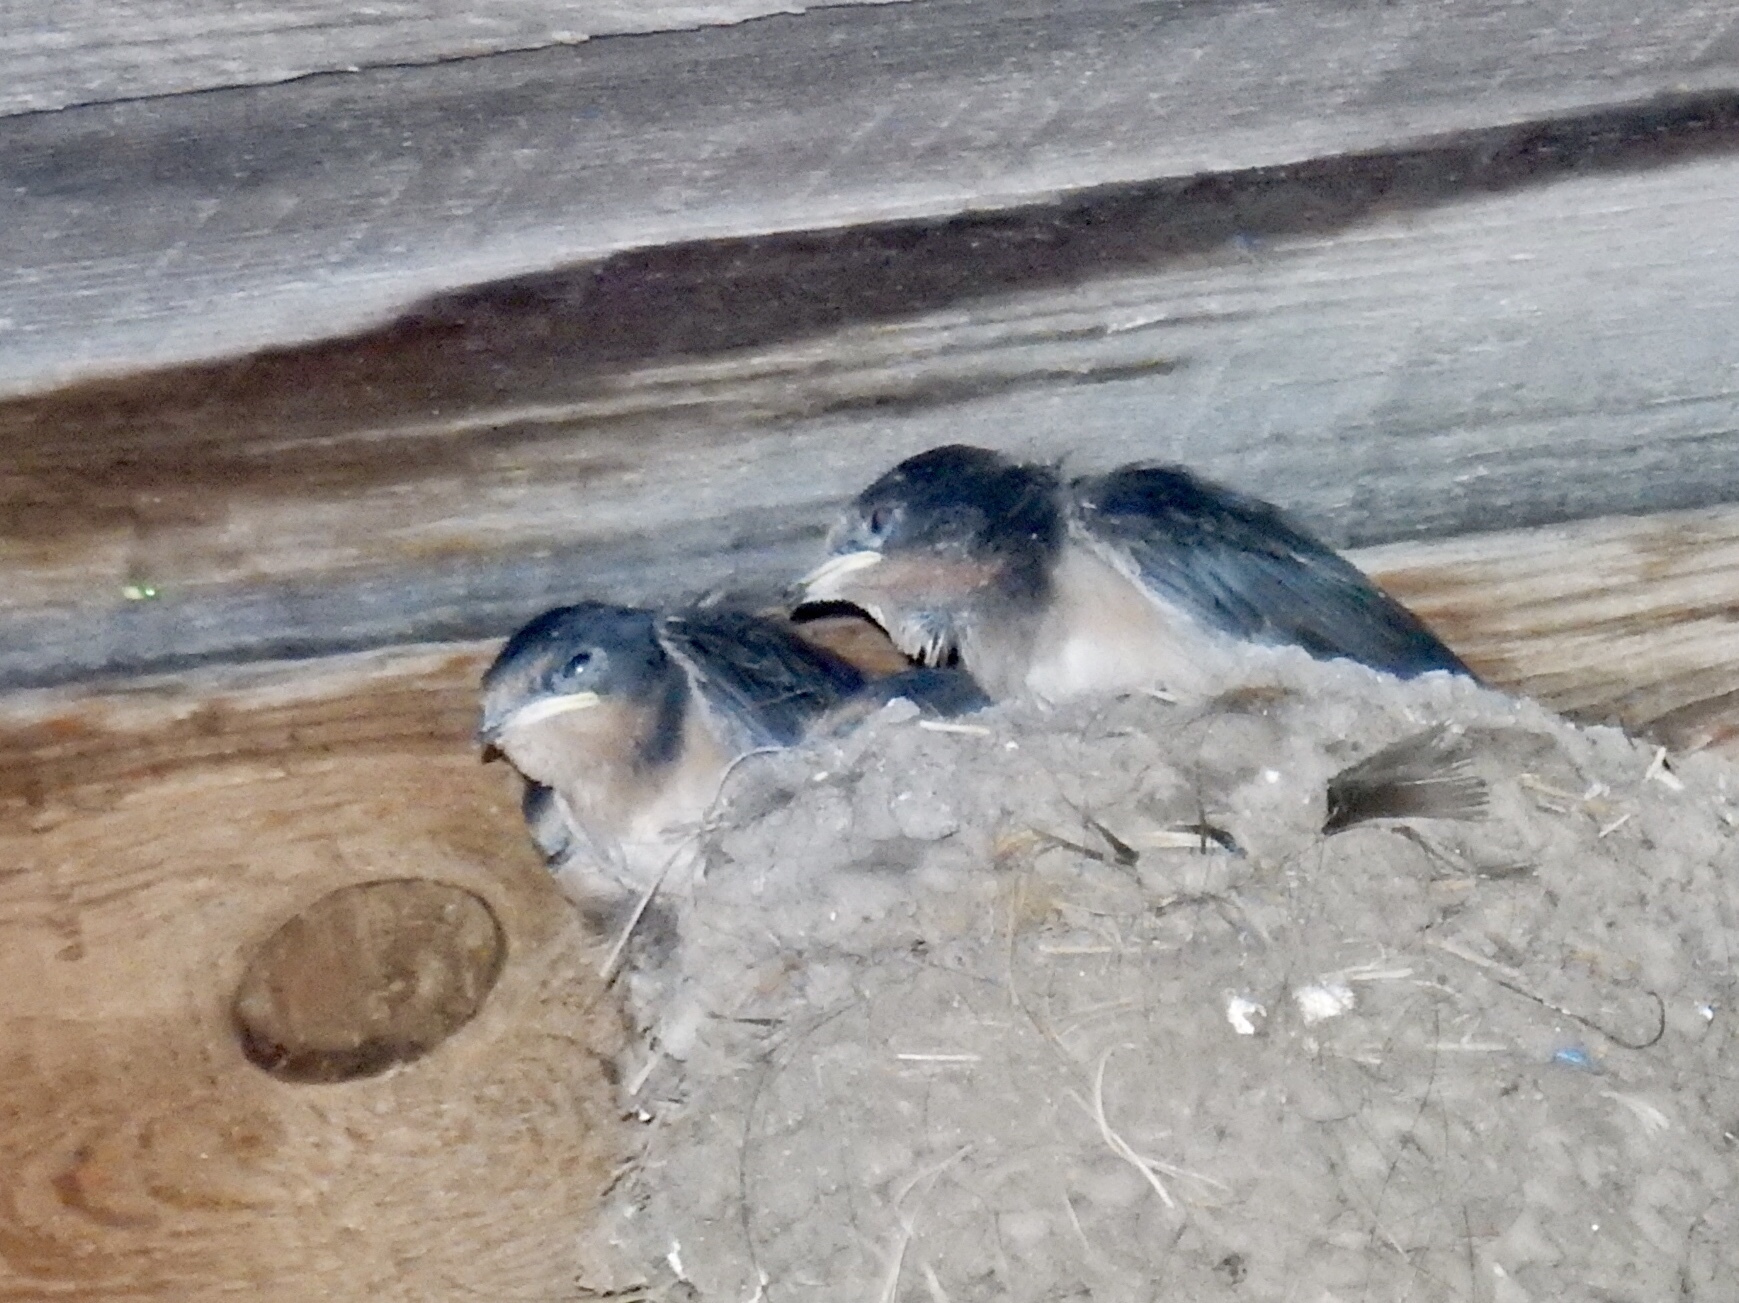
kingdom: Animalia
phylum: Chordata
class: Aves
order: Passeriformes
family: Hirundinidae
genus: Hirundo
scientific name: Hirundo rustica
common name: Barn swallow
